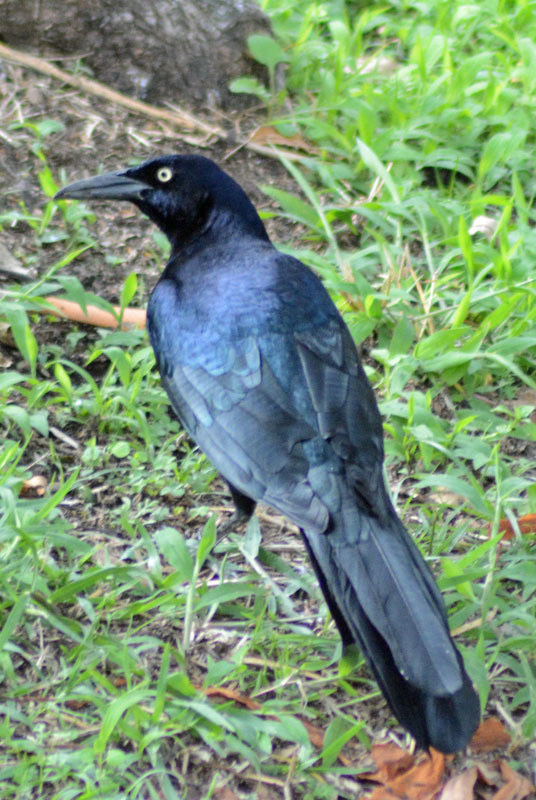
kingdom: Animalia
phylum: Chordata
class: Aves
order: Passeriformes
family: Icteridae
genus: Quiscalus
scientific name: Quiscalus mexicanus
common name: Great-tailed grackle
